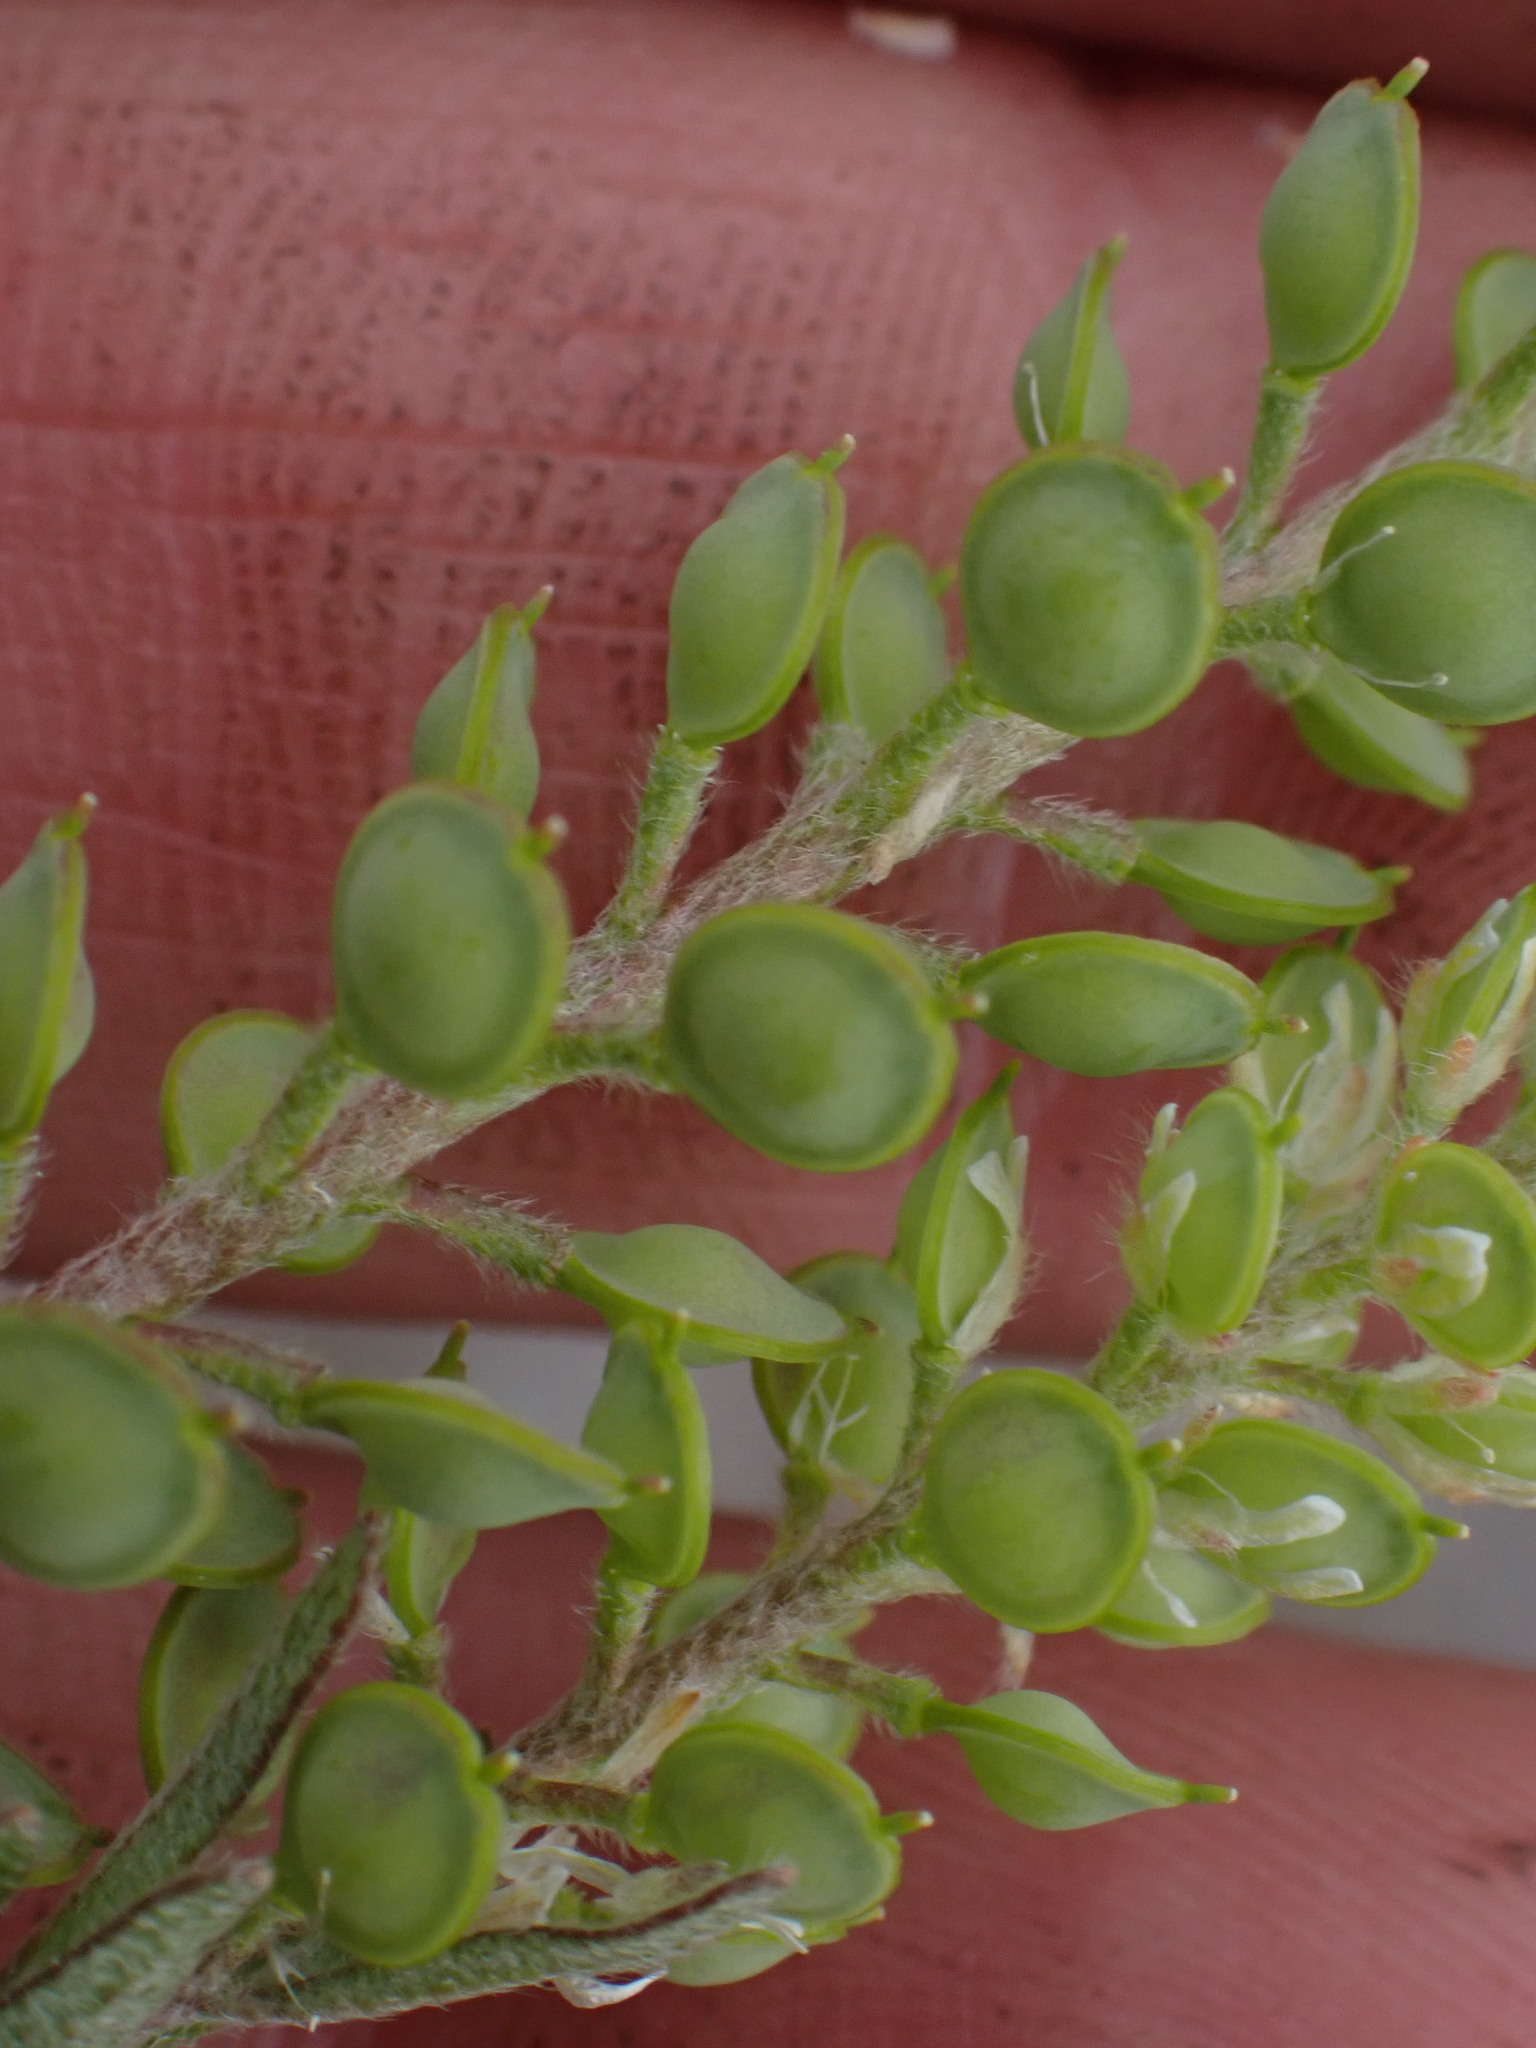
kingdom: Plantae
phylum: Tracheophyta
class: Magnoliopsida
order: Brassicales
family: Brassicaceae
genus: Alyssum
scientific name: Alyssum turkestanicum
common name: Desert alyssum
